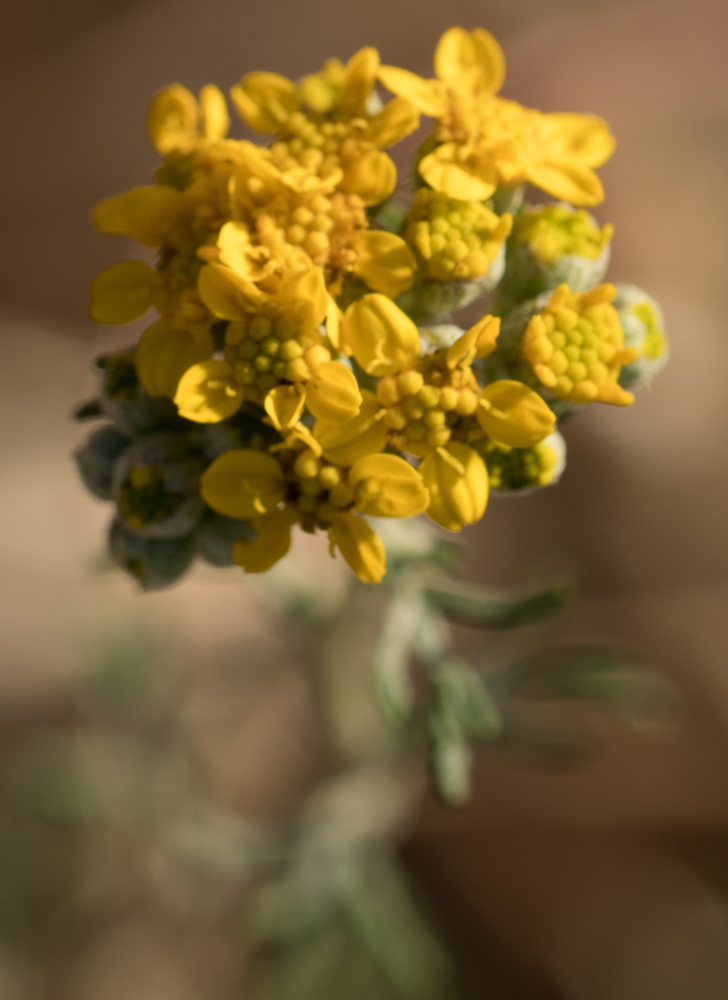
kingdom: Plantae
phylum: Tracheophyta
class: Magnoliopsida
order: Asterales
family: Asteraceae
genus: Eriophyllum
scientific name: Eriophyllum confertiflorum
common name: Golden-yarrow
